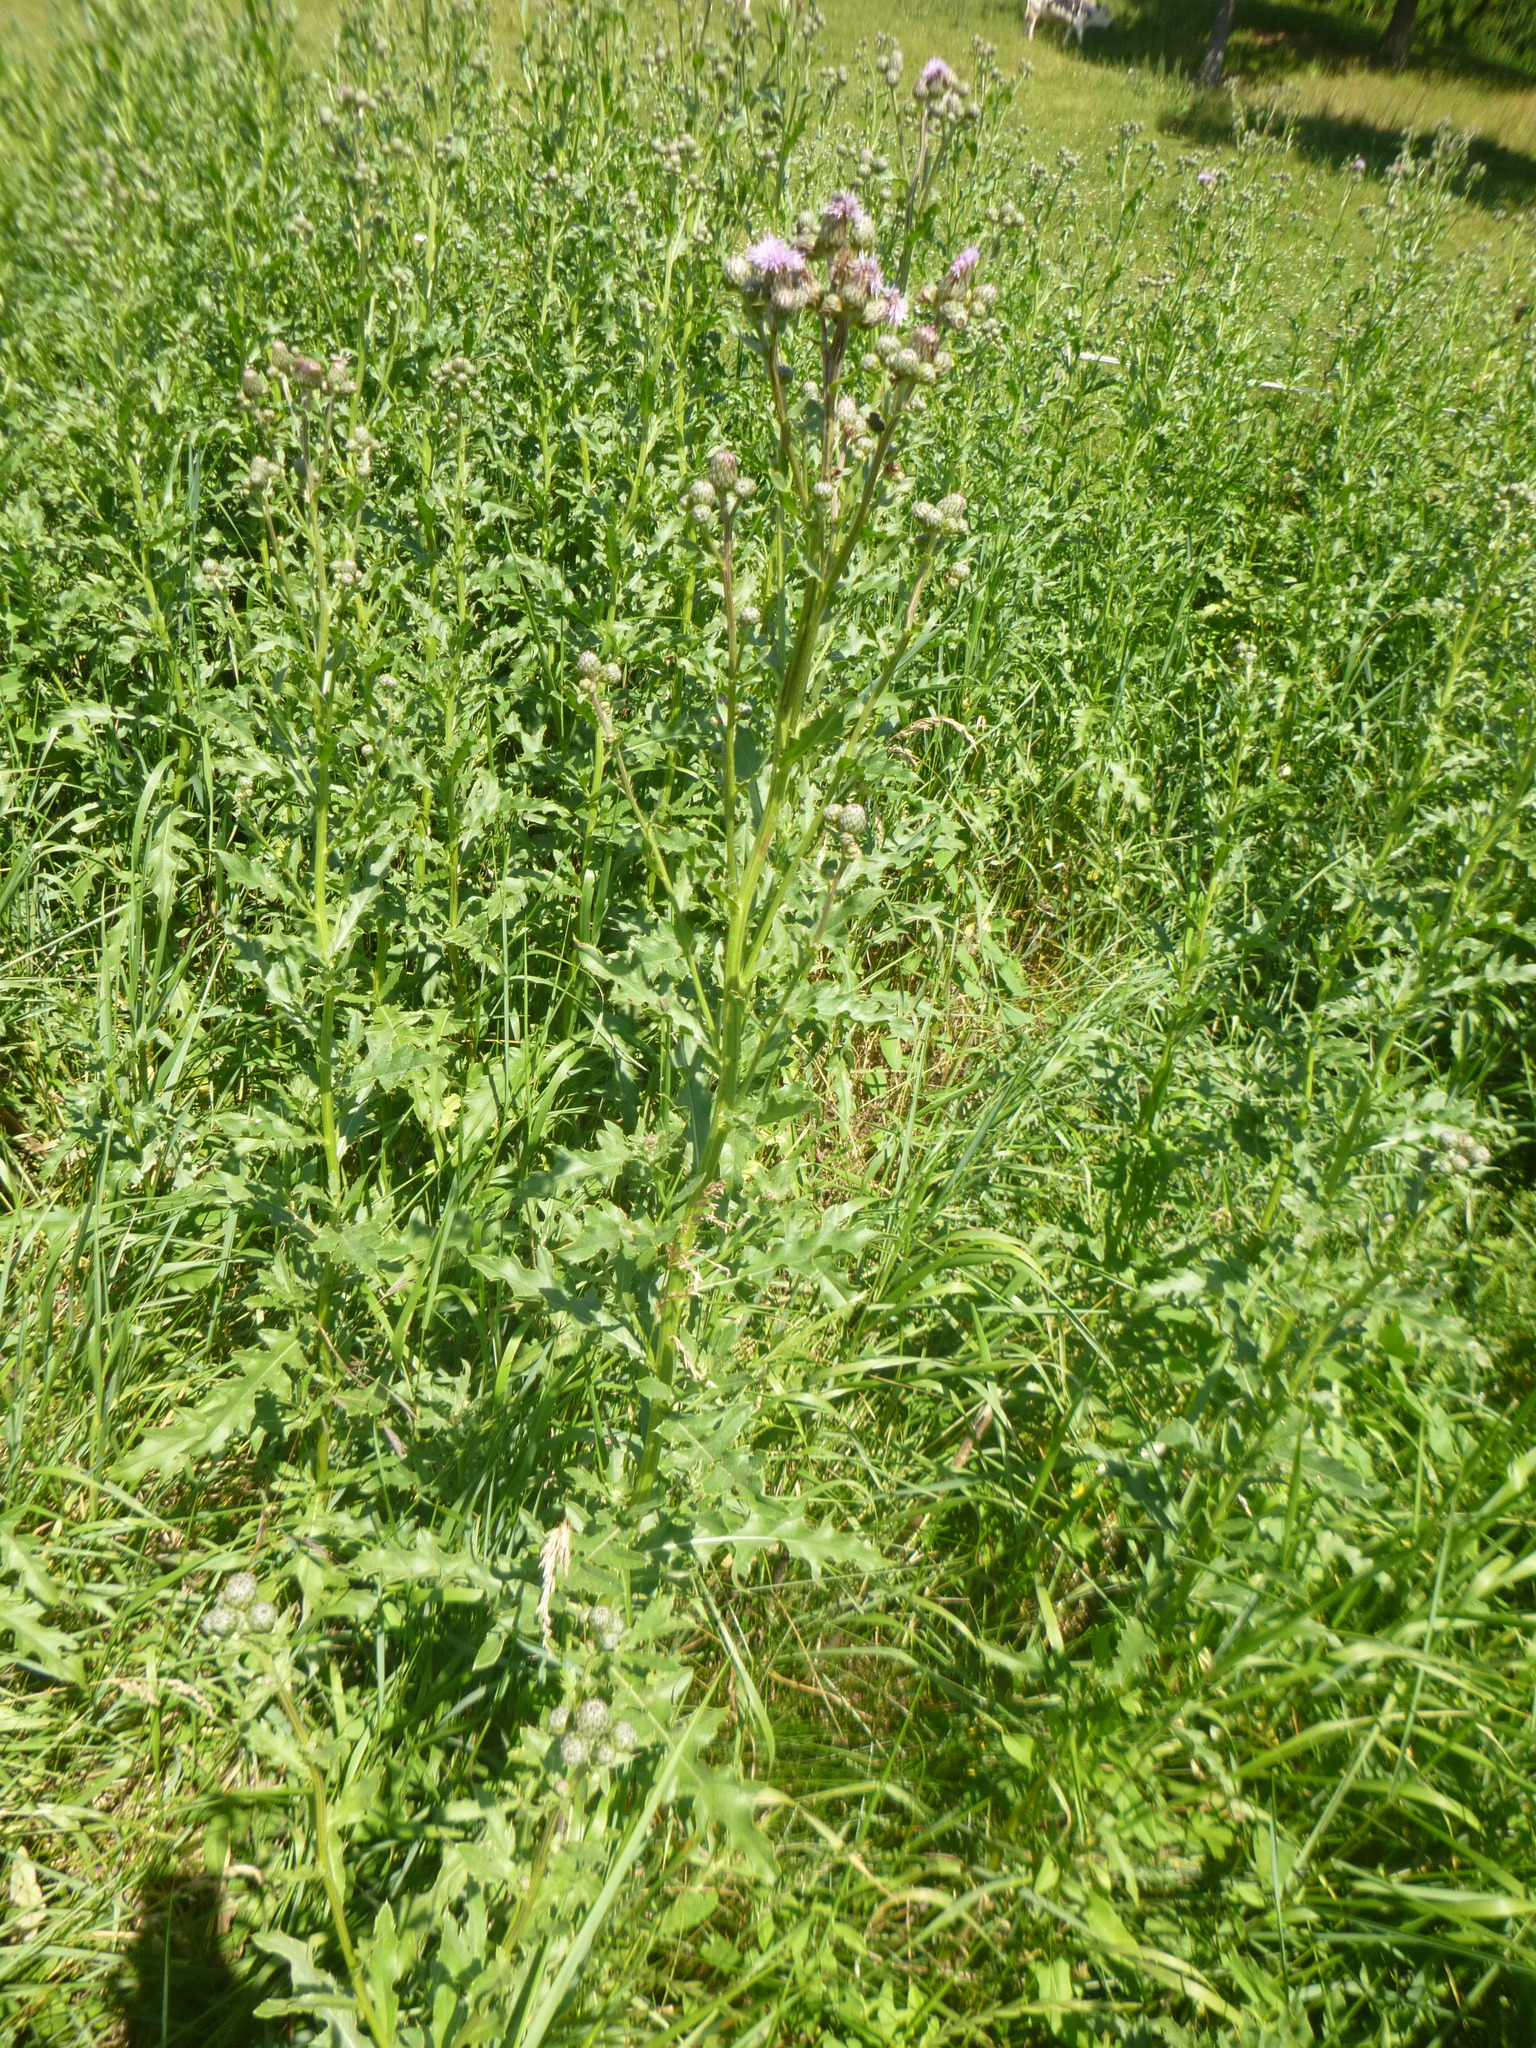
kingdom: Plantae
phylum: Tracheophyta
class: Magnoliopsida
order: Asterales
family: Asteraceae
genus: Cirsium
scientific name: Cirsium arvense
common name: Creeping thistle
